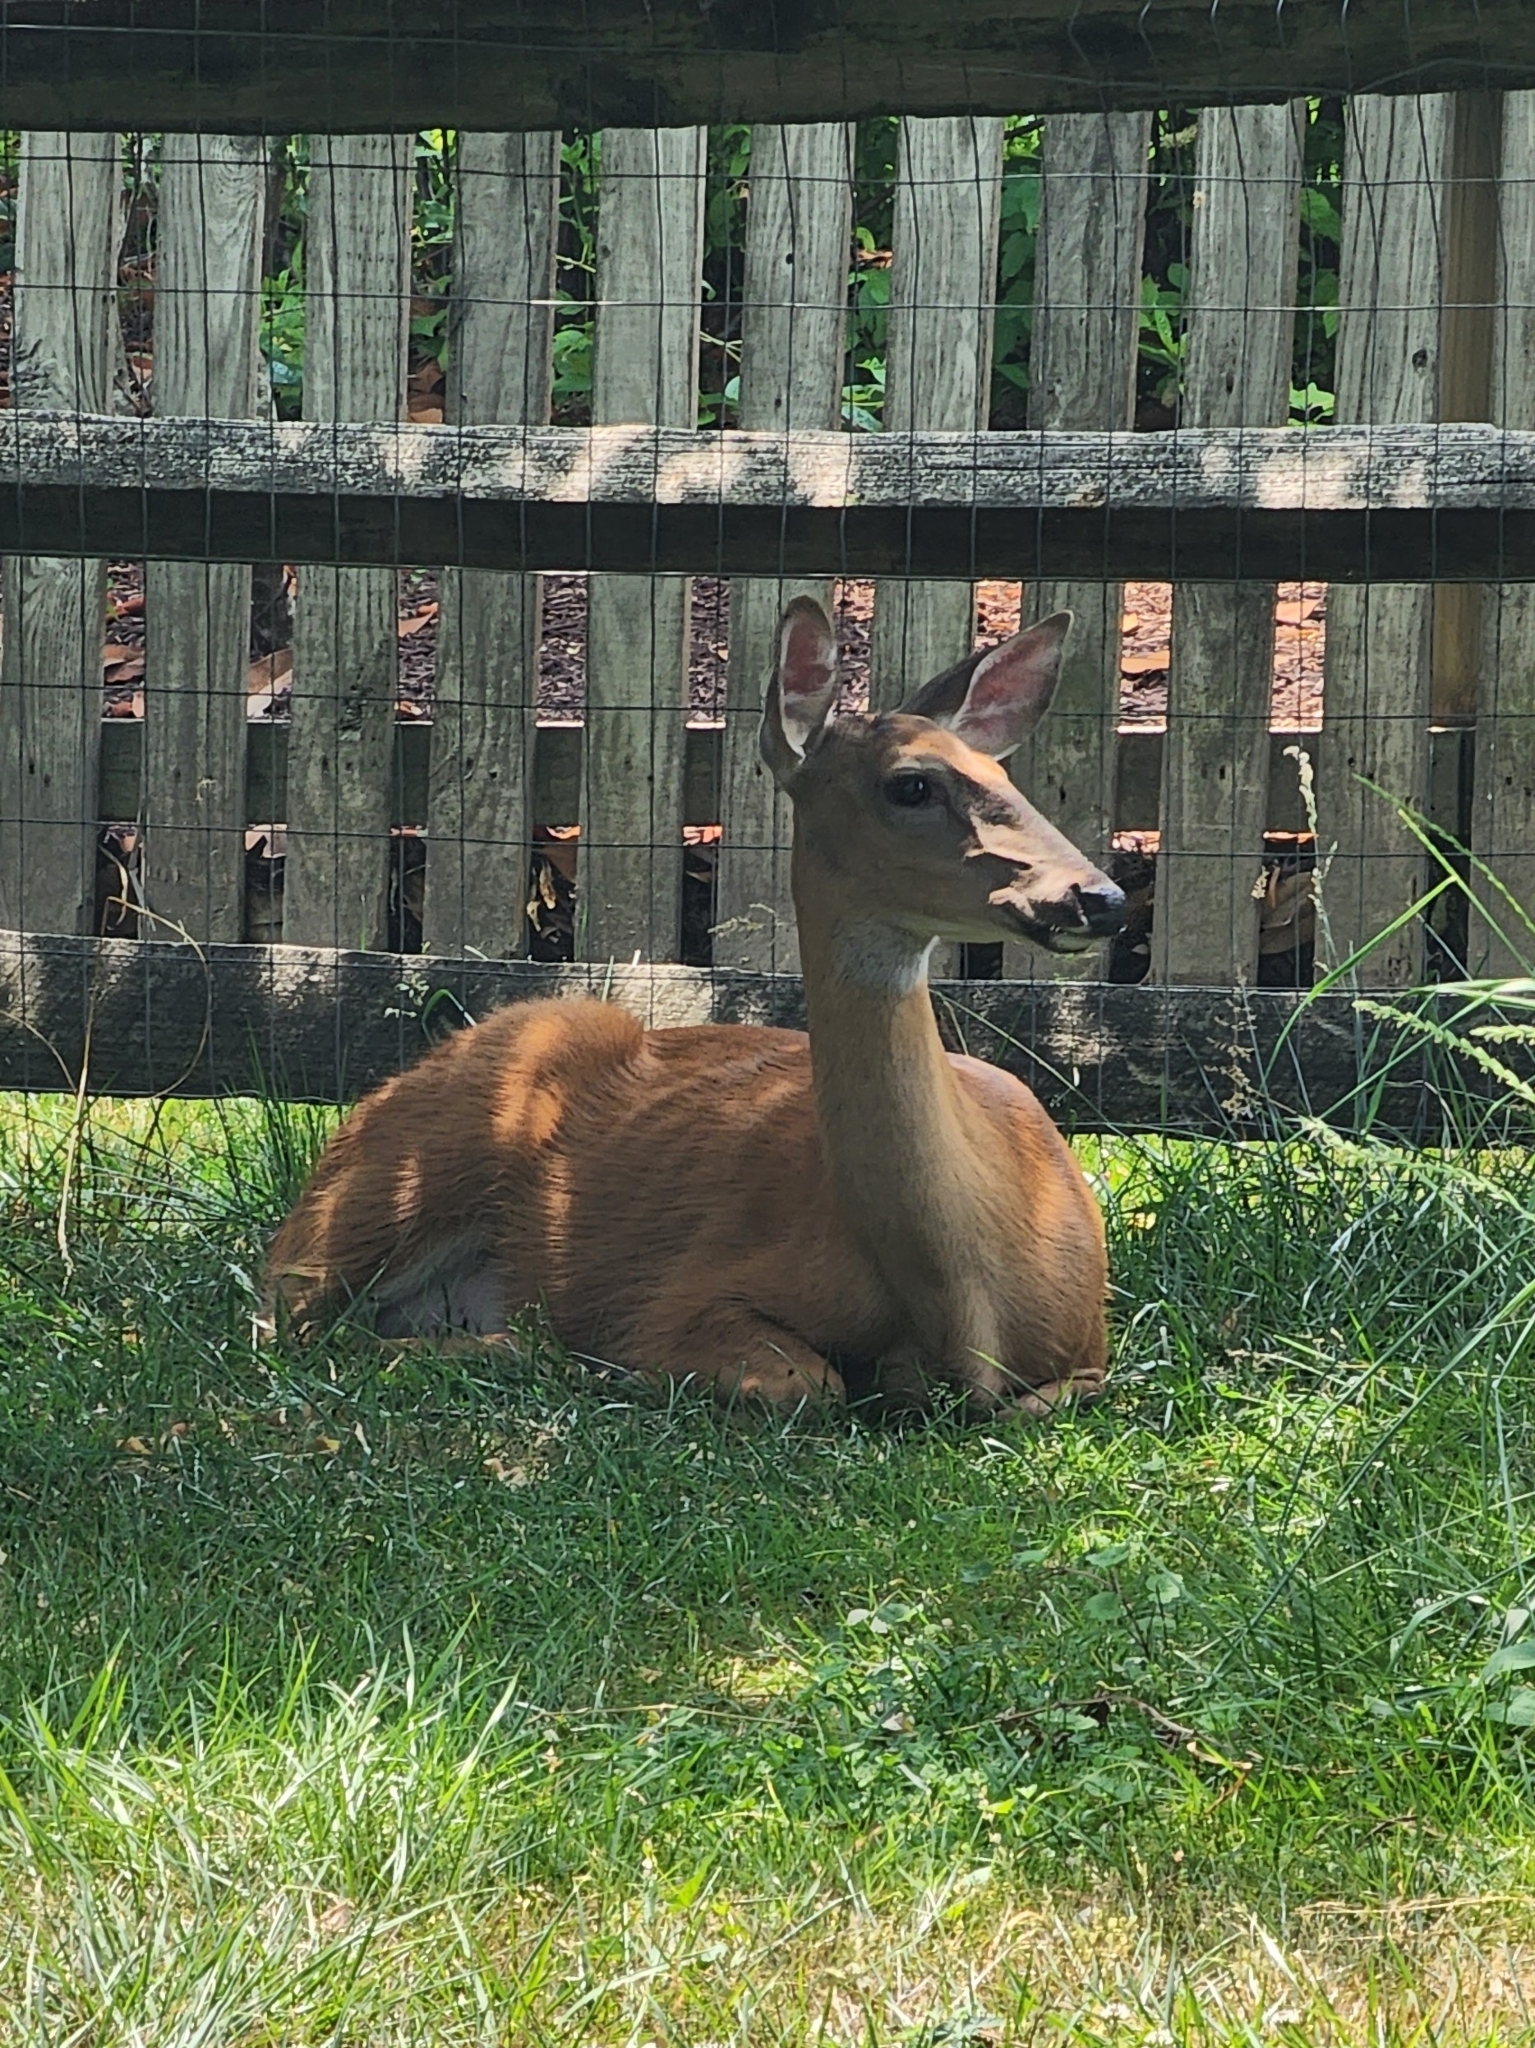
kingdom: Animalia
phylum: Chordata
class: Mammalia
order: Artiodactyla
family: Cervidae
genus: Odocoileus
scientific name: Odocoileus virginianus
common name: White-tailed deer
